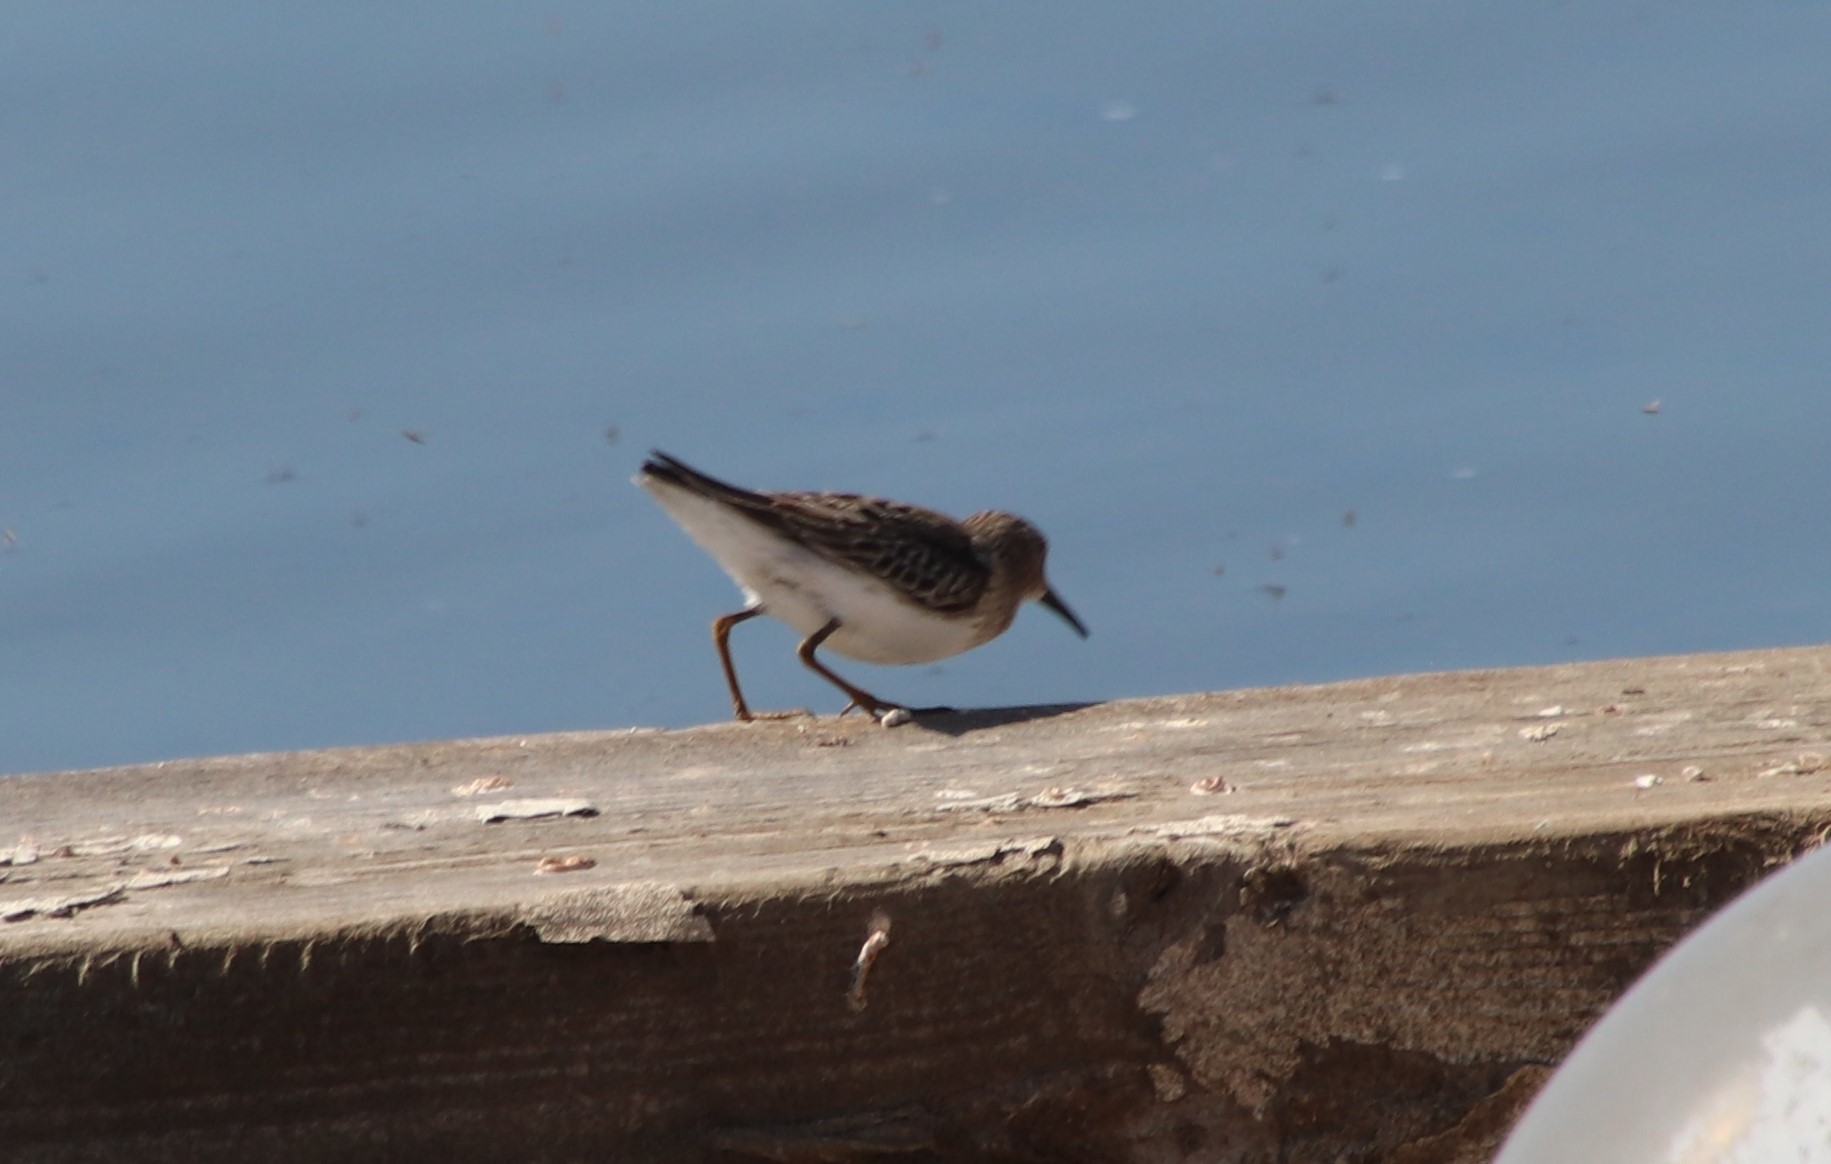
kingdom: Animalia
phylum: Chordata
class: Aves
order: Charadriiformes
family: Scolopacidae
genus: Calidris
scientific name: Calidris minutilla
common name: Least sandpiper
